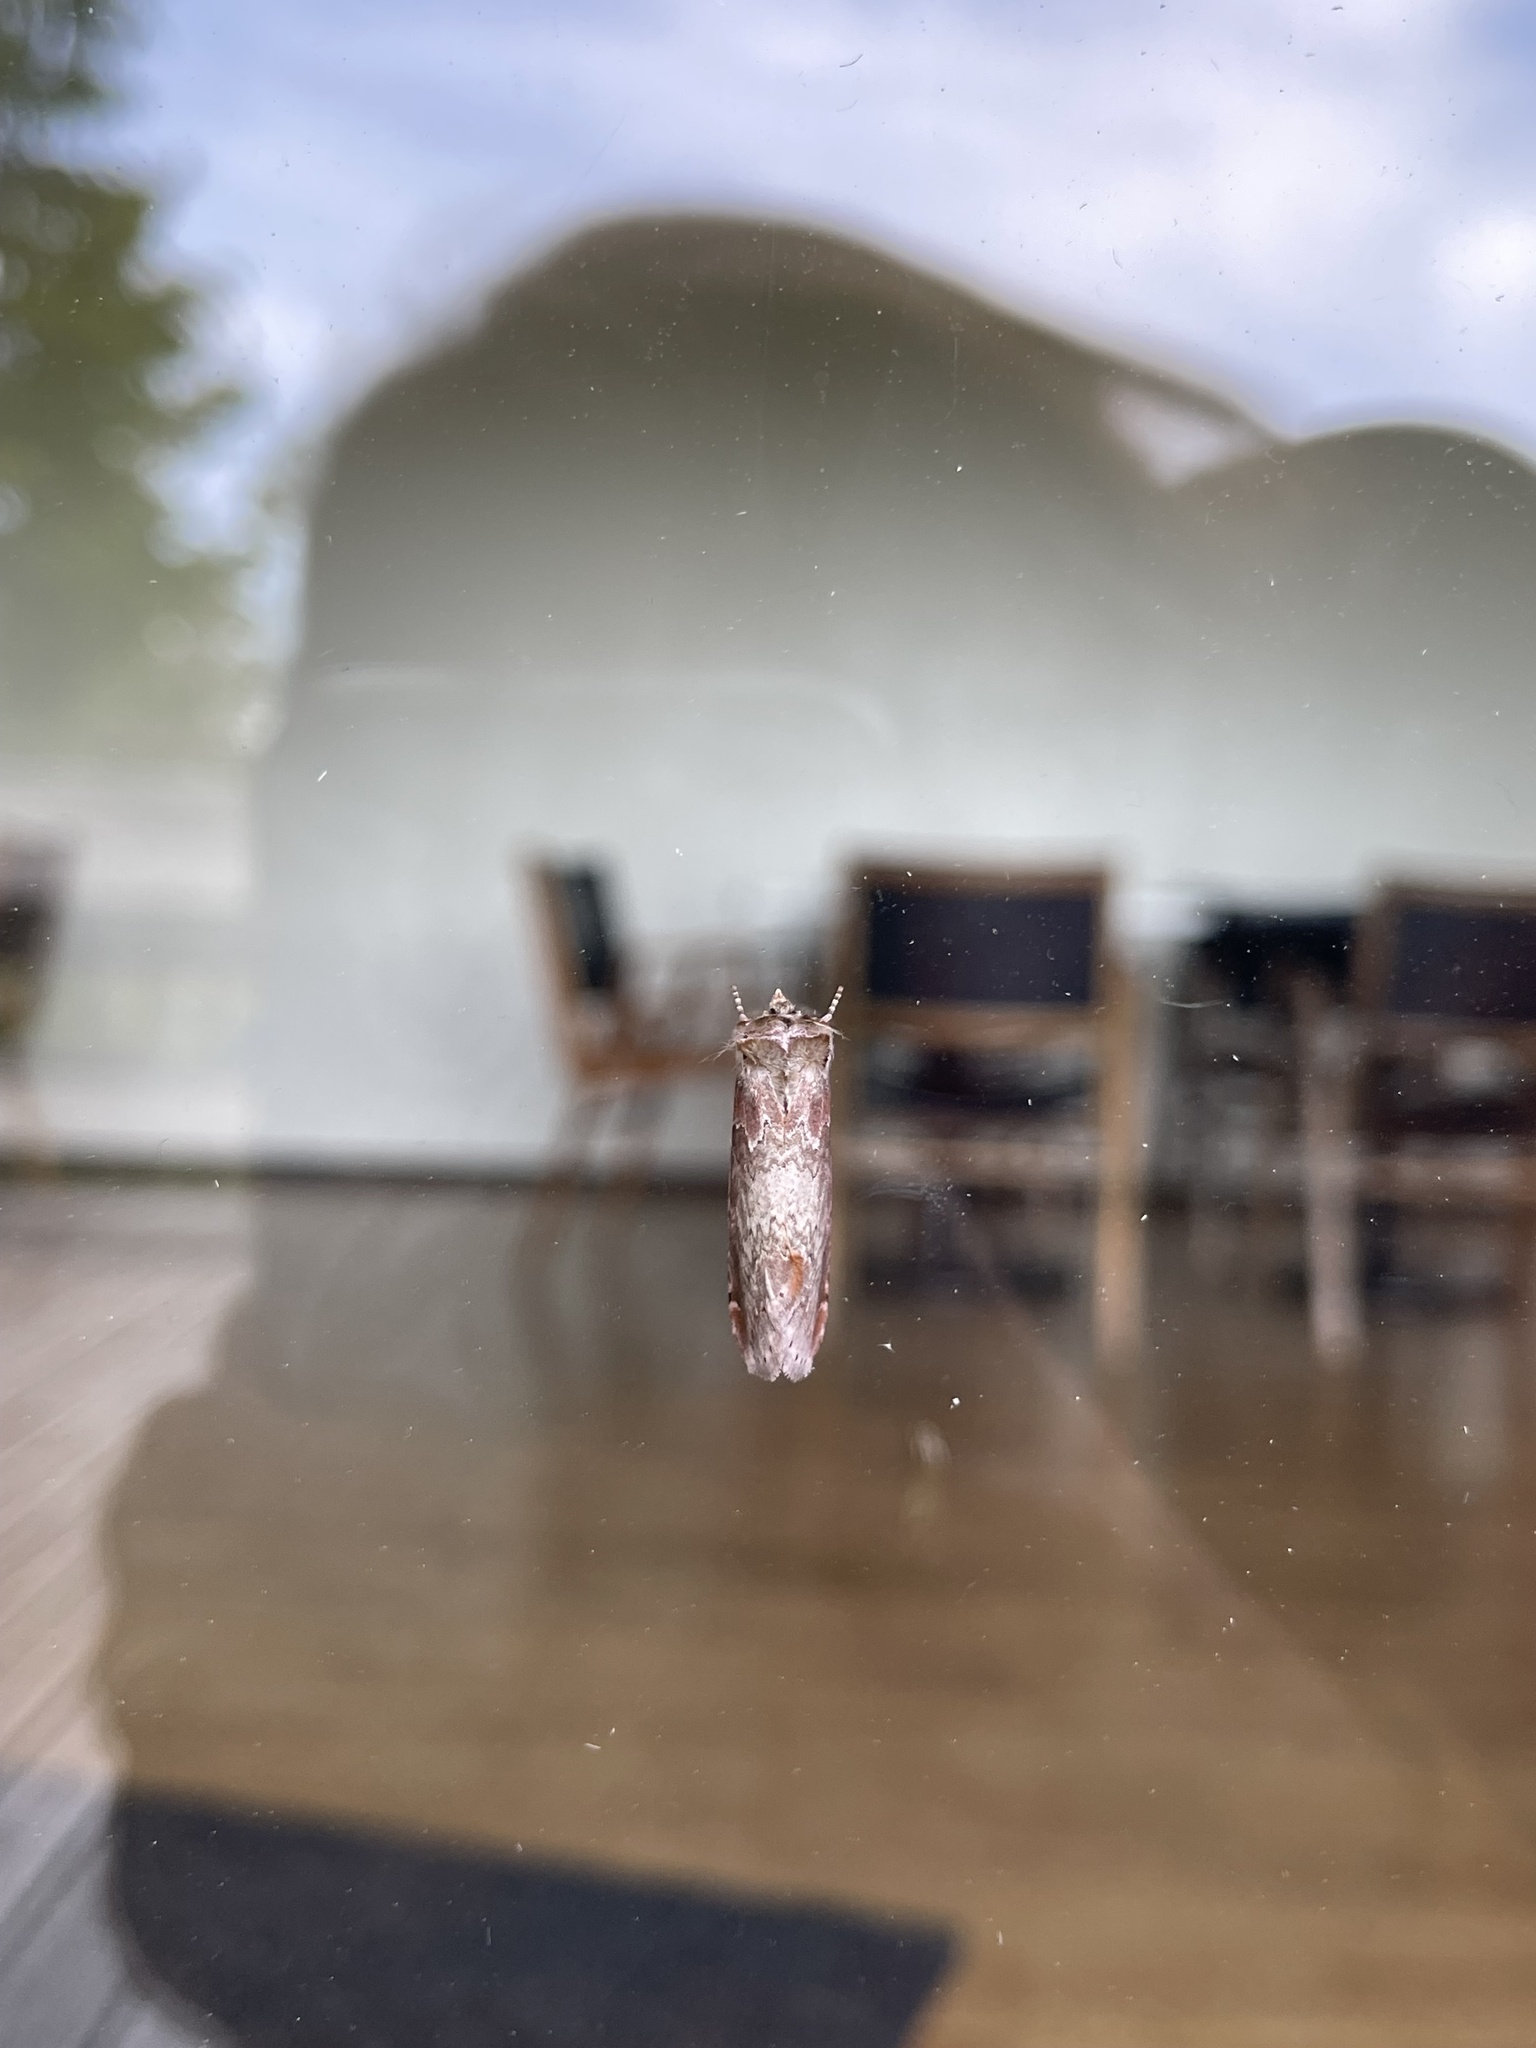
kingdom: Animalia
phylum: Arthropoda
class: Insecta
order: Lepidoptera
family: Drepanidae
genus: Pseudothyatira
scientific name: Pseudothyatira cymatophoroides
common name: Tufted thyatirid moth
